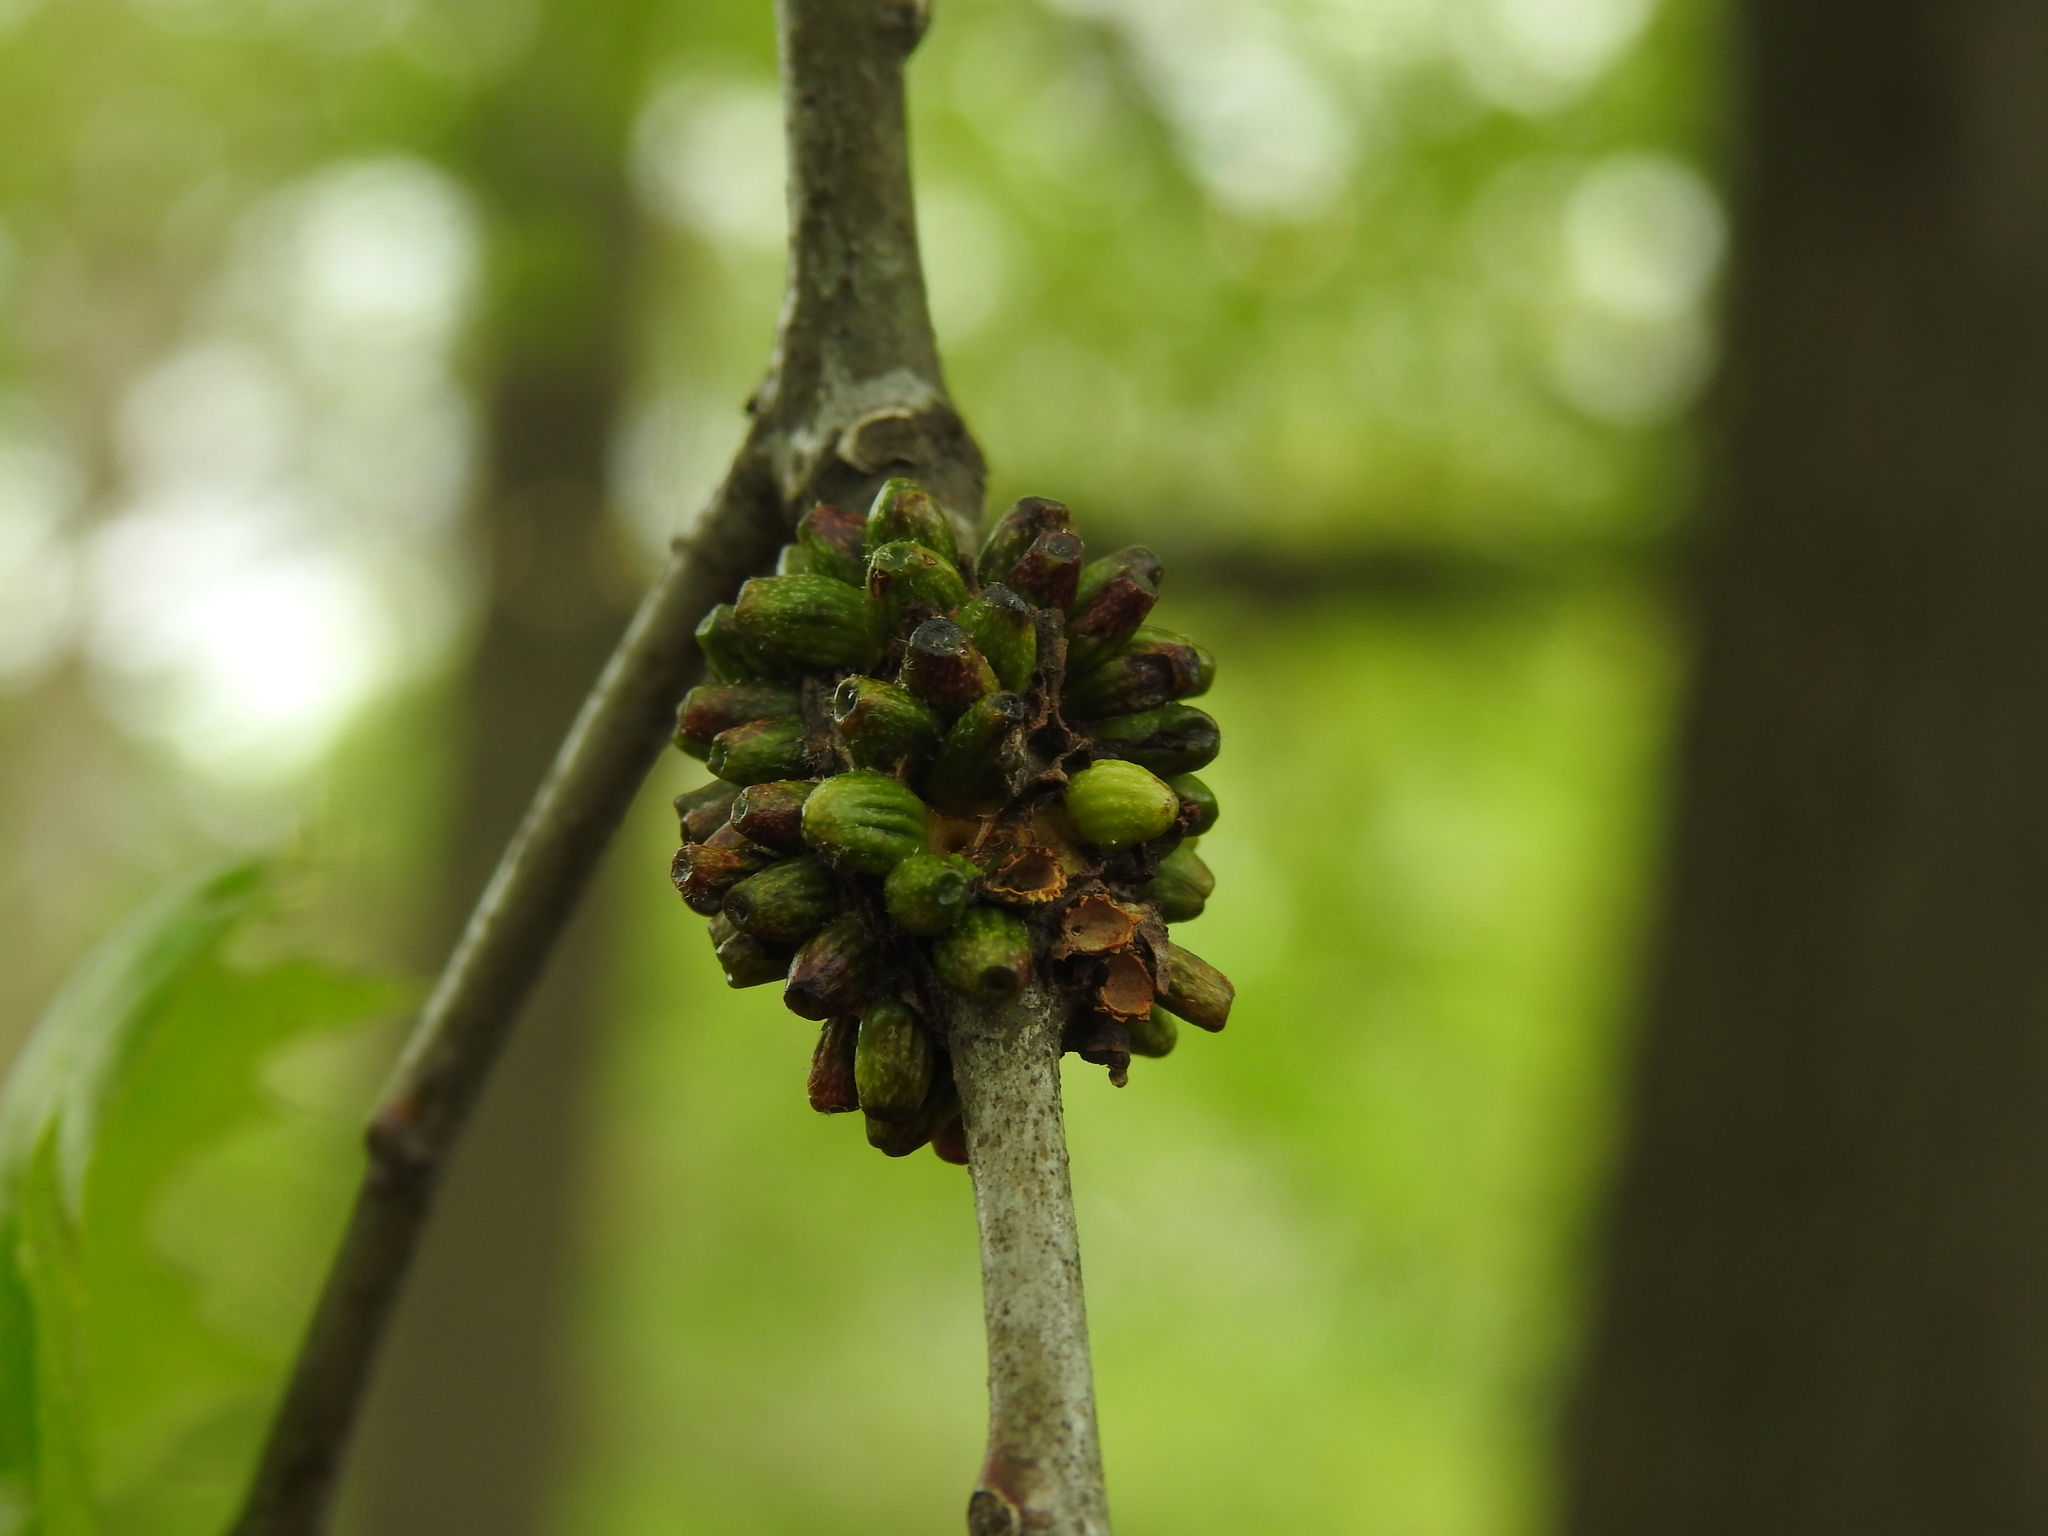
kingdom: Animalia
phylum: Arthropoda
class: Insecta
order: Hymenoptera
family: Cynipidae
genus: Callirhytis
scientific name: Callirhytis
